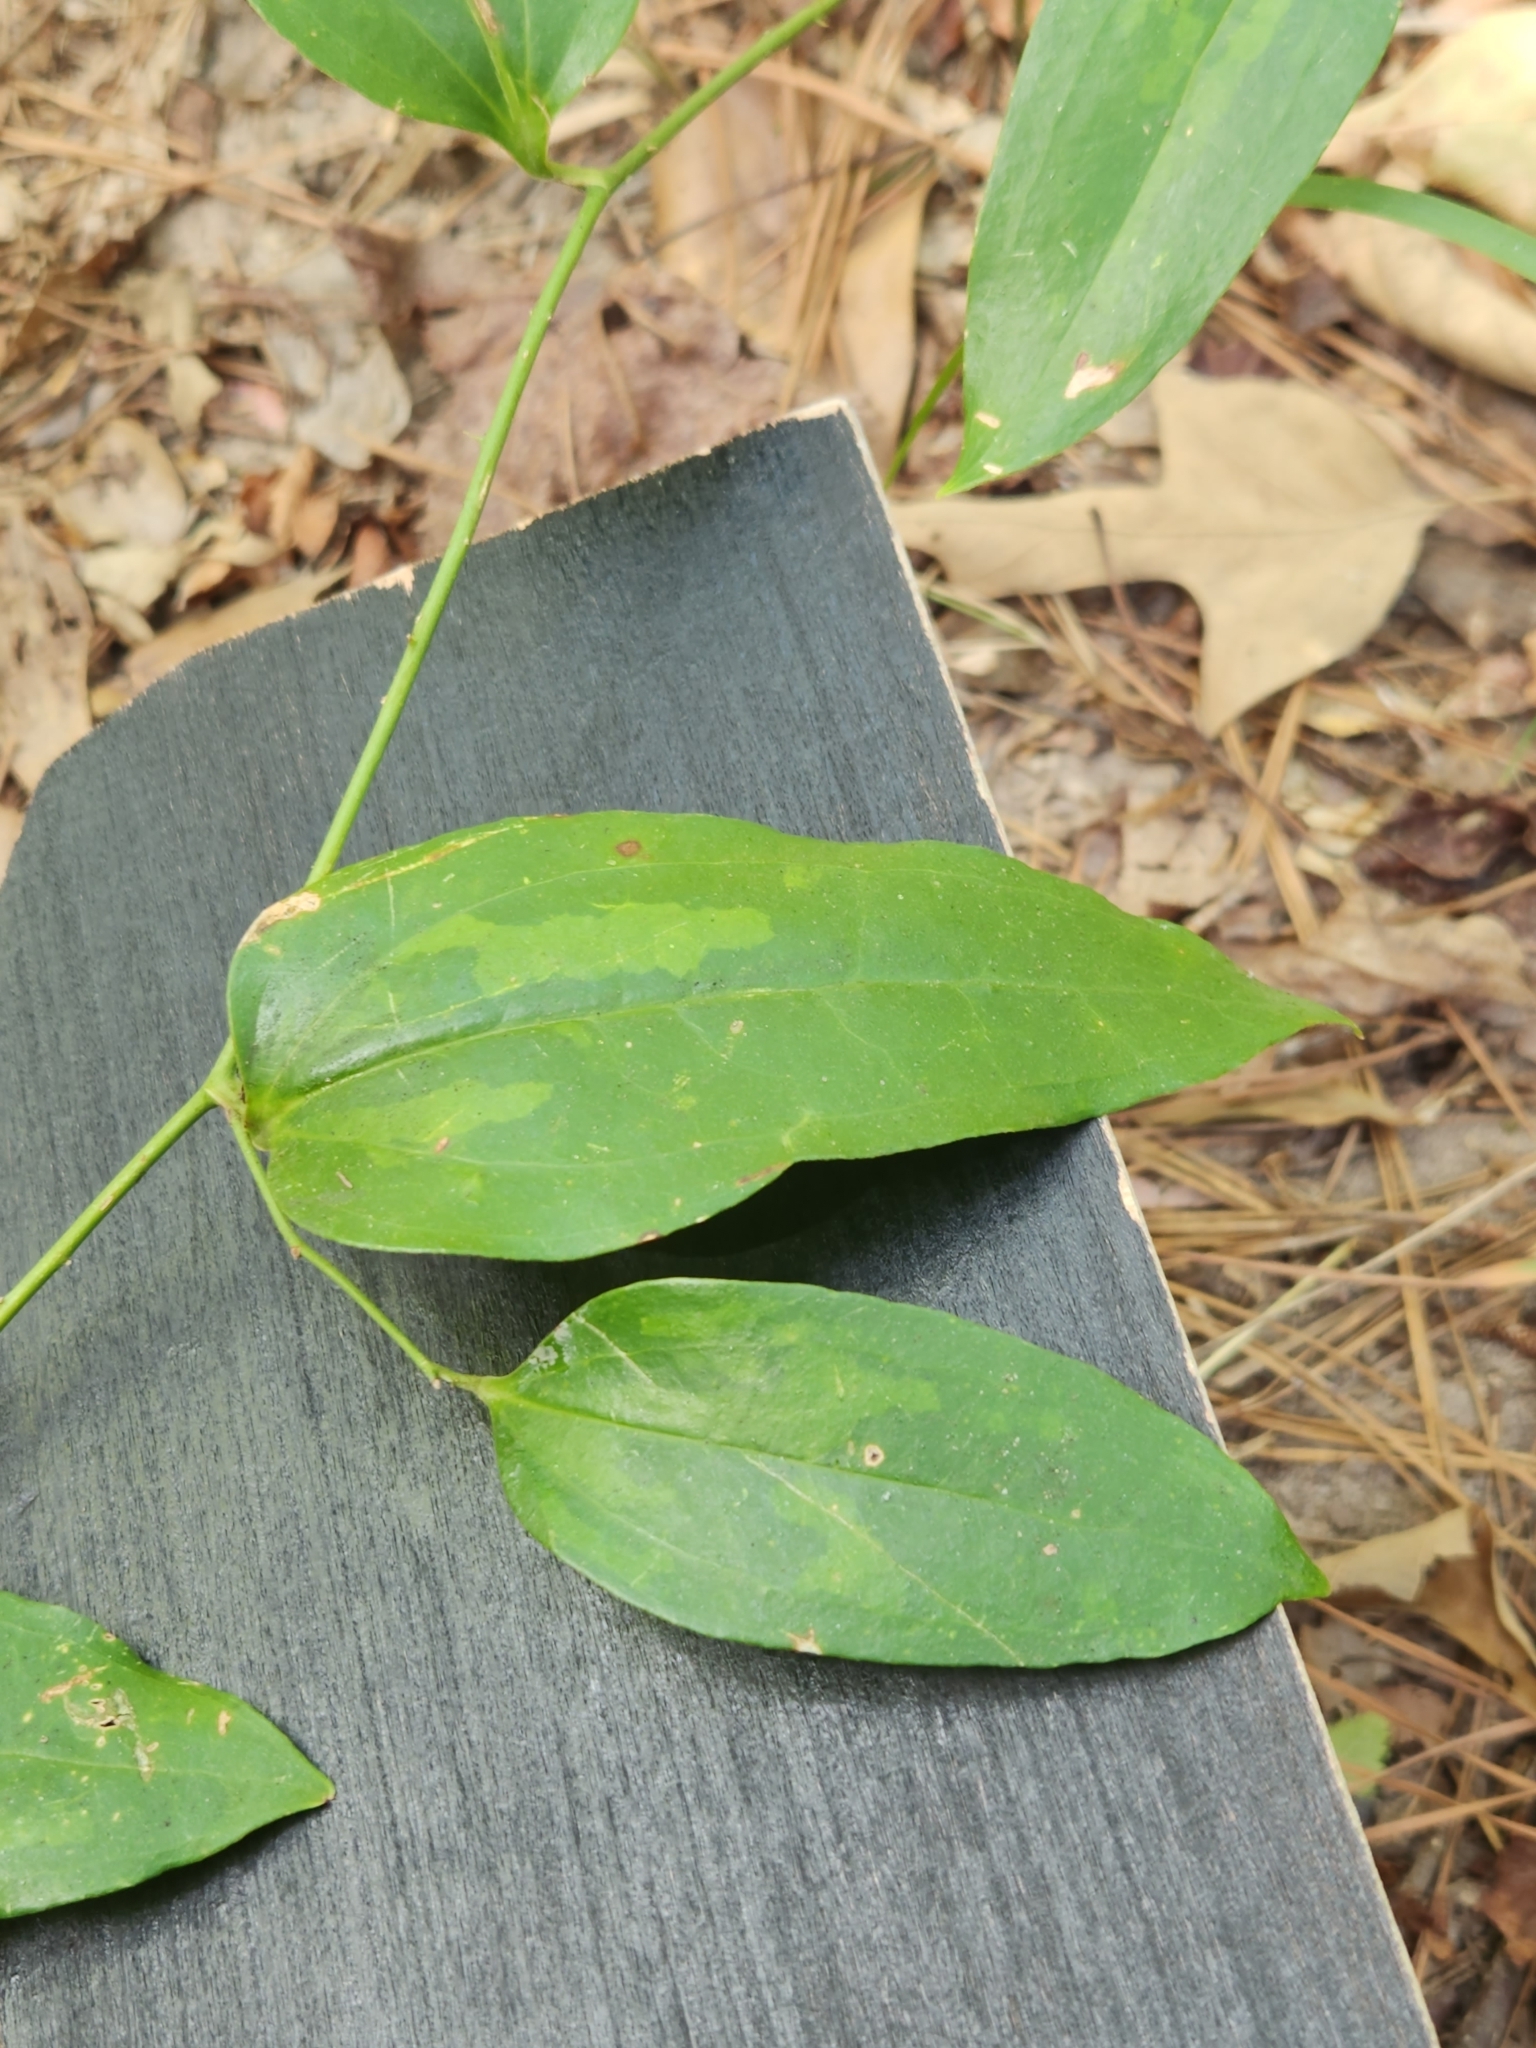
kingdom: Plantae
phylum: Tracheophyta
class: Liliopsida
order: Liliales
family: Smilacaceae
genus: Smilax
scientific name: Smilax maritima
